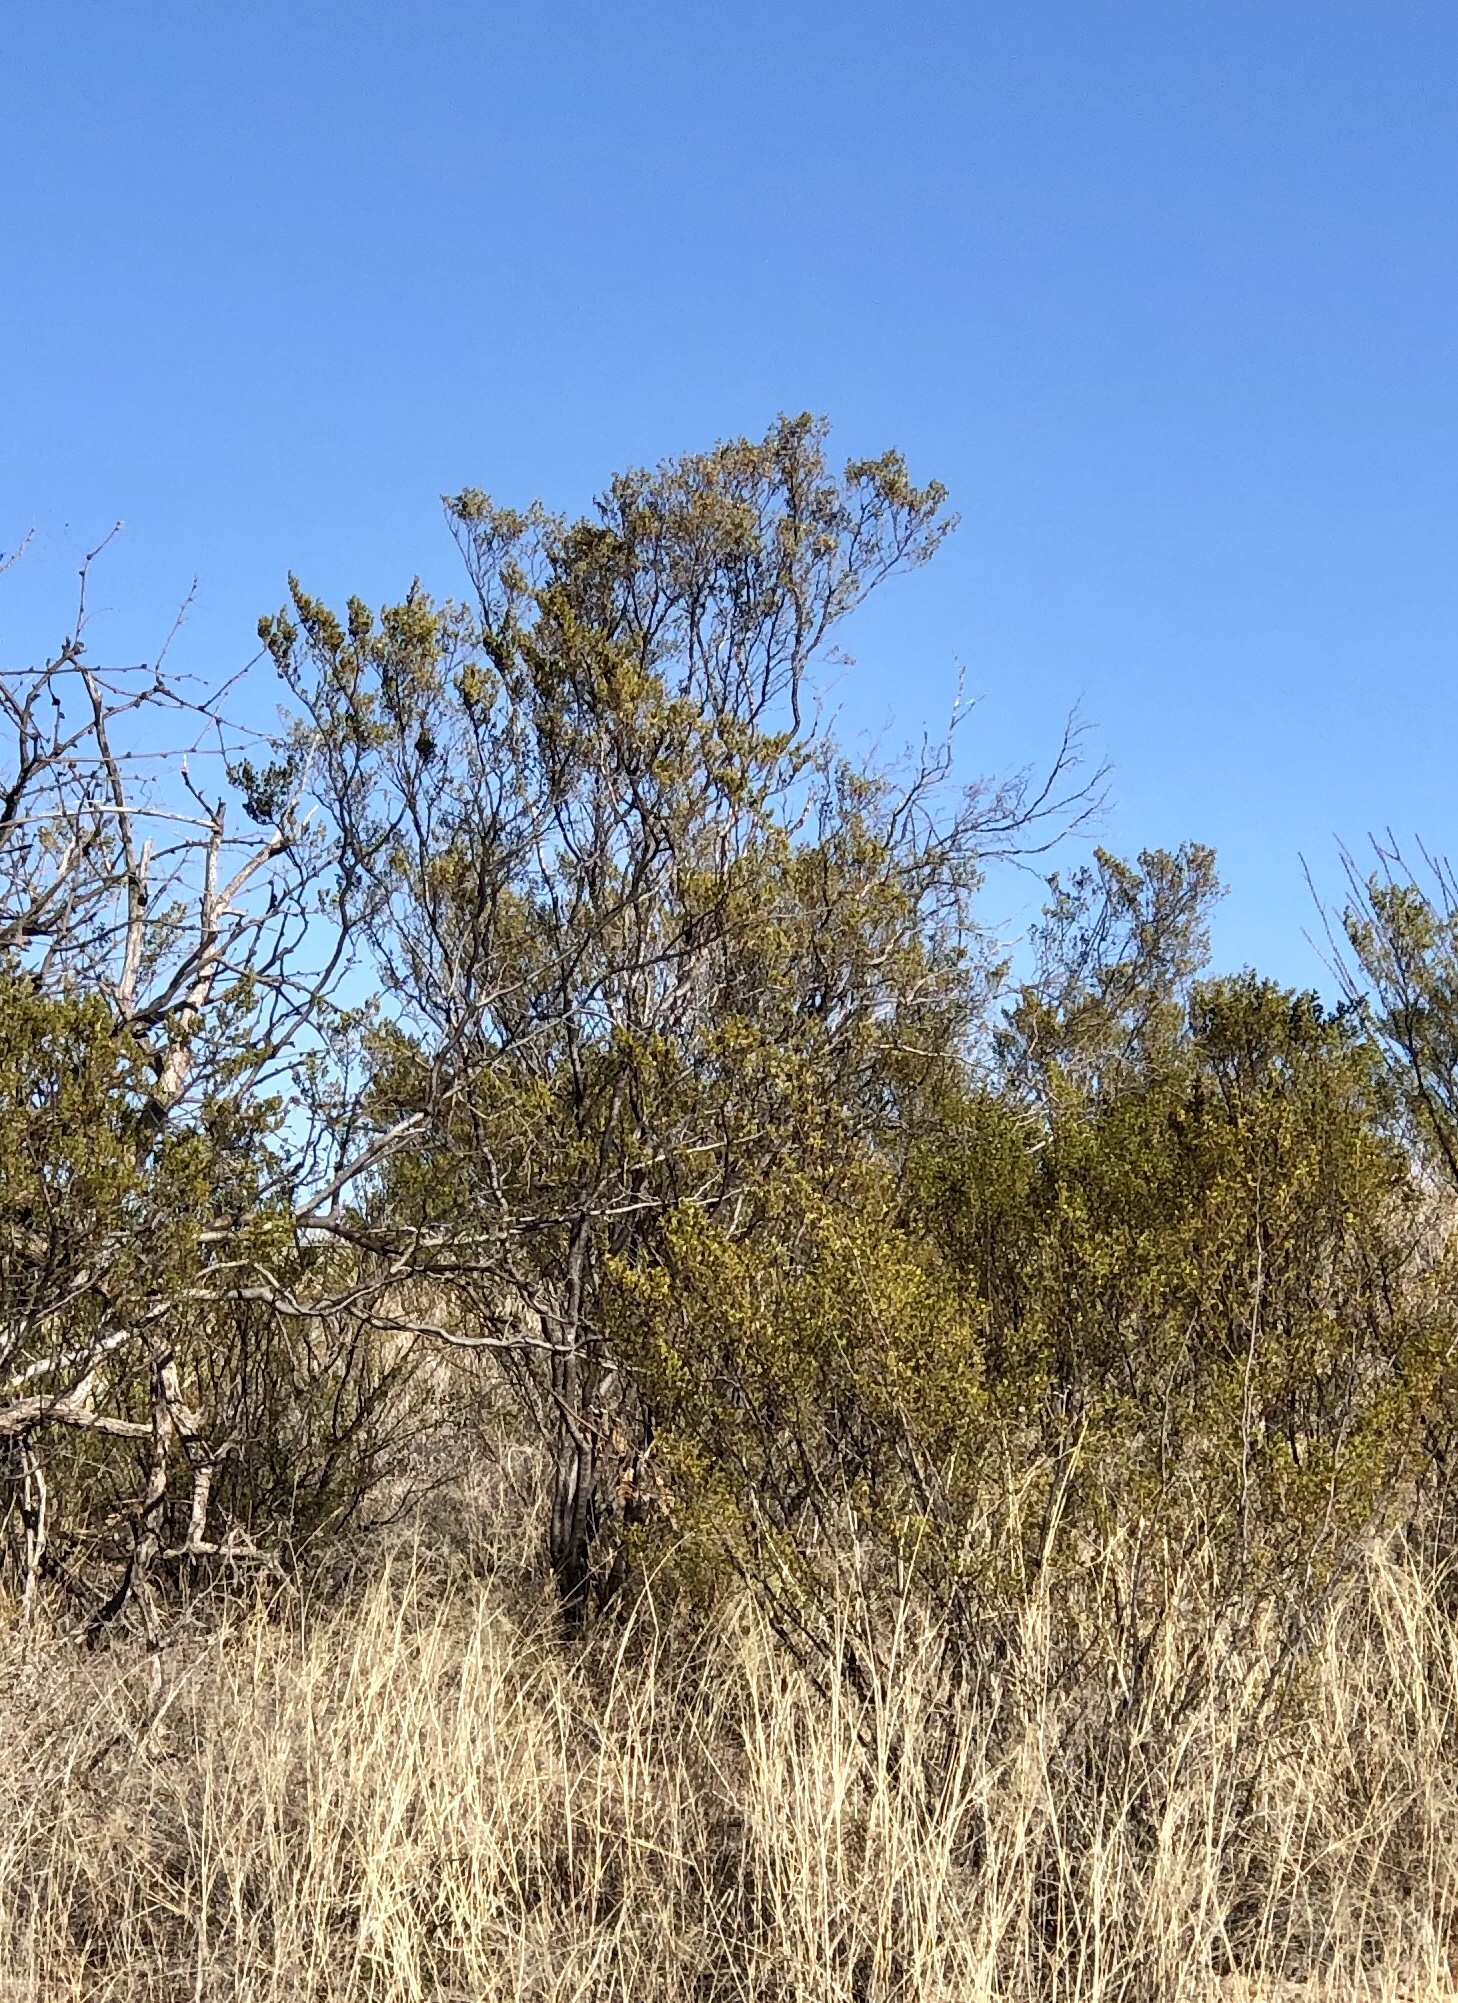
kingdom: Plantae
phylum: Tracheophyta
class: Magnoliopsida
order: Zygophyllales
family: Zygophyllaceae
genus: Larrea
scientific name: Larrea tridentata
